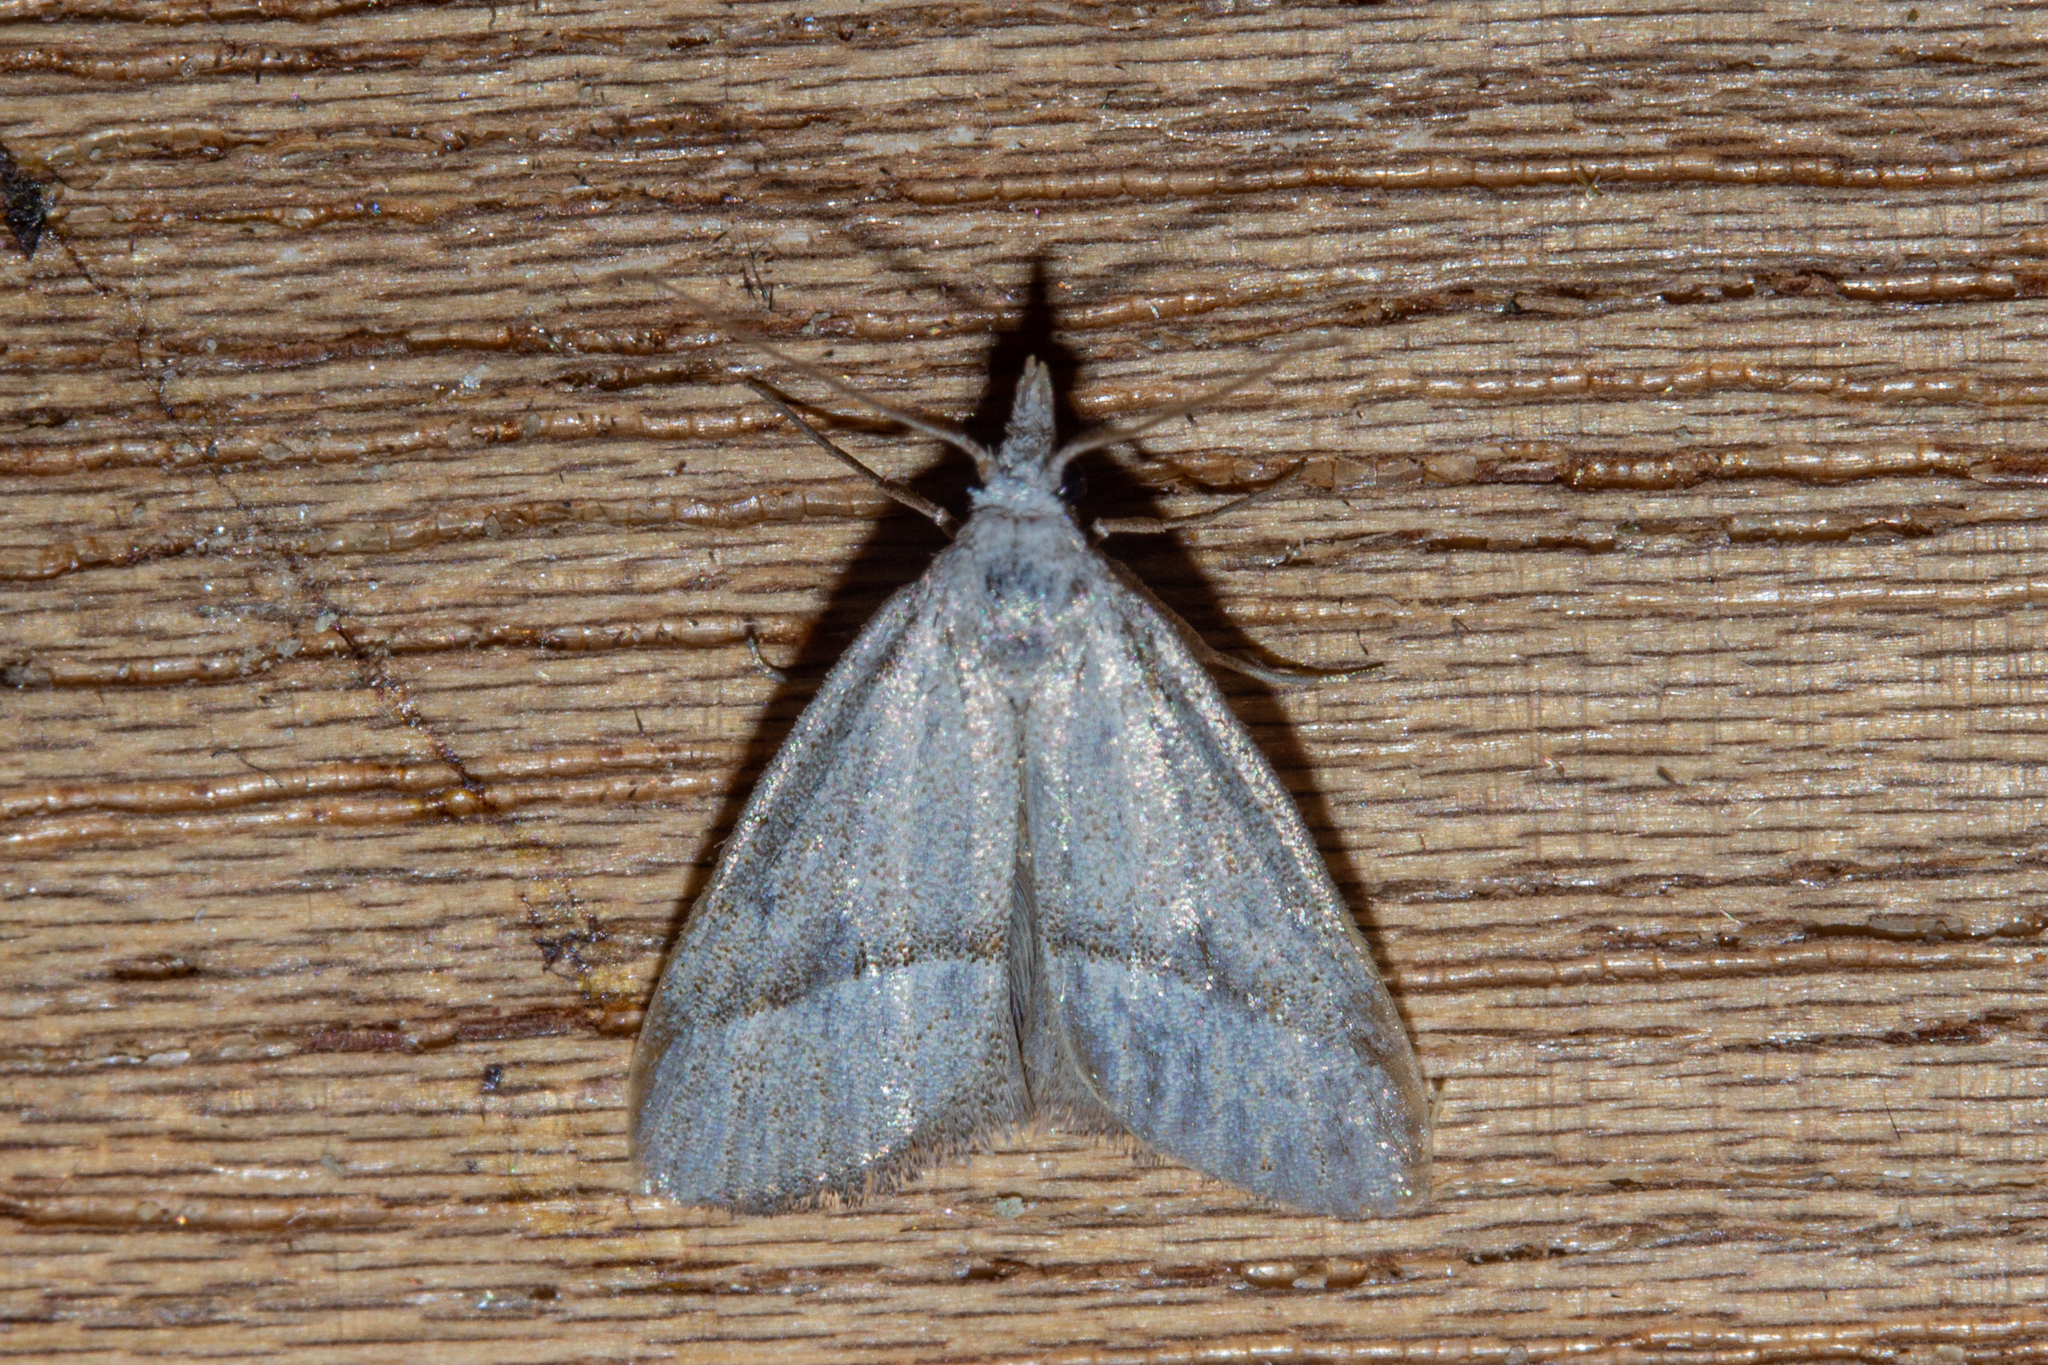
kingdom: Animalia
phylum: Arthropoda
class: Insecta
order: Lepidoptera
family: Nolidae
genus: Nola
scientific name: Nola parvitis
